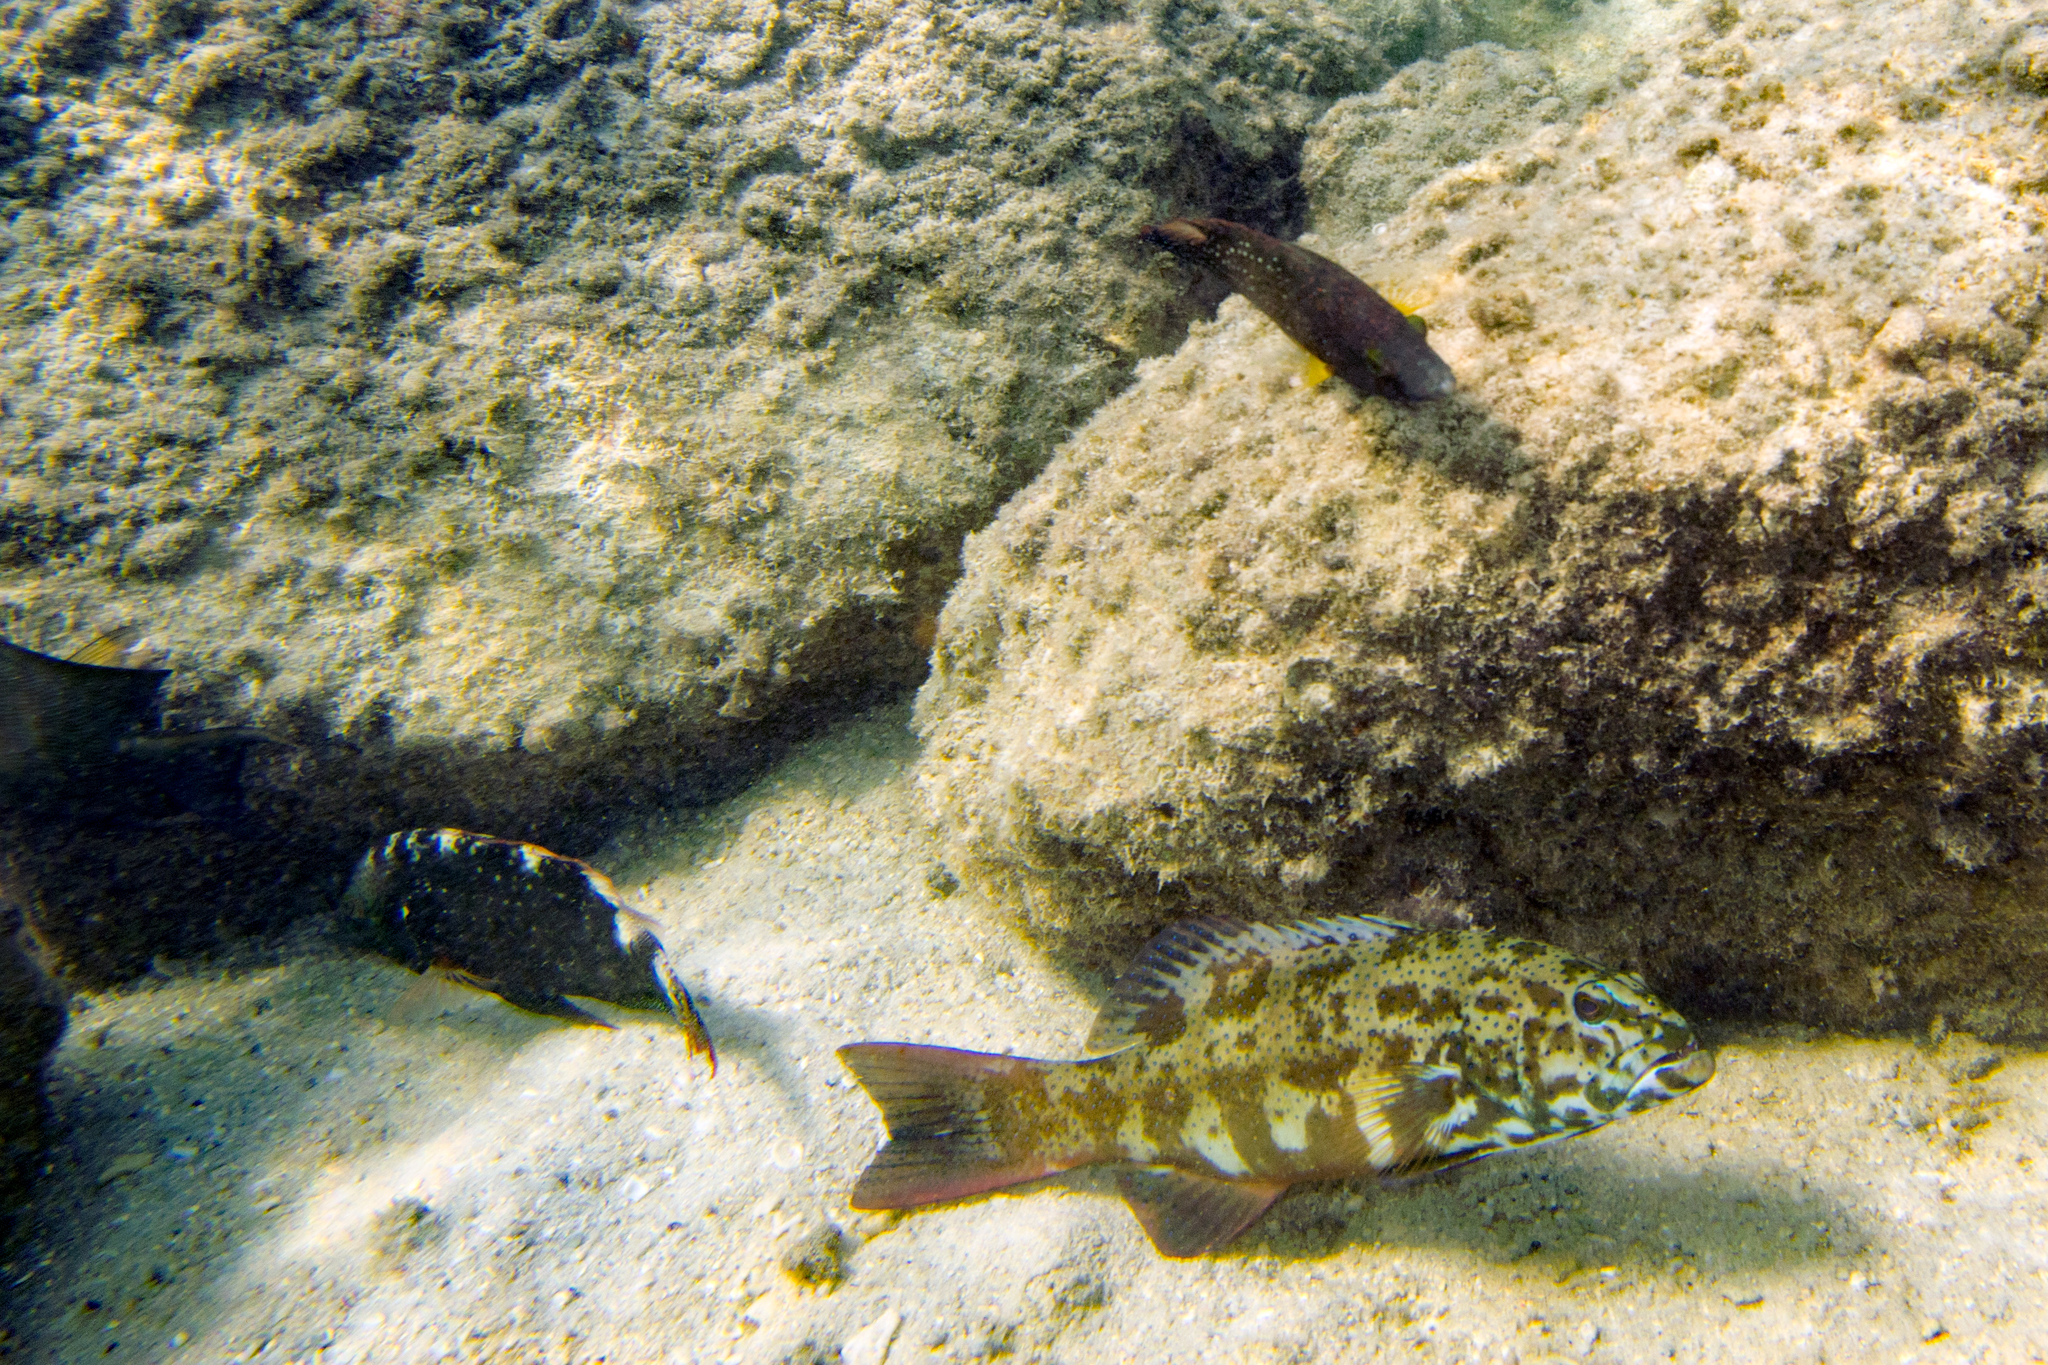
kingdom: Animalia
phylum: Chordata
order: Perciformes
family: Serranidae
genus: Plectropomus
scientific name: Plectropomus leopardus
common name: Coral trout
